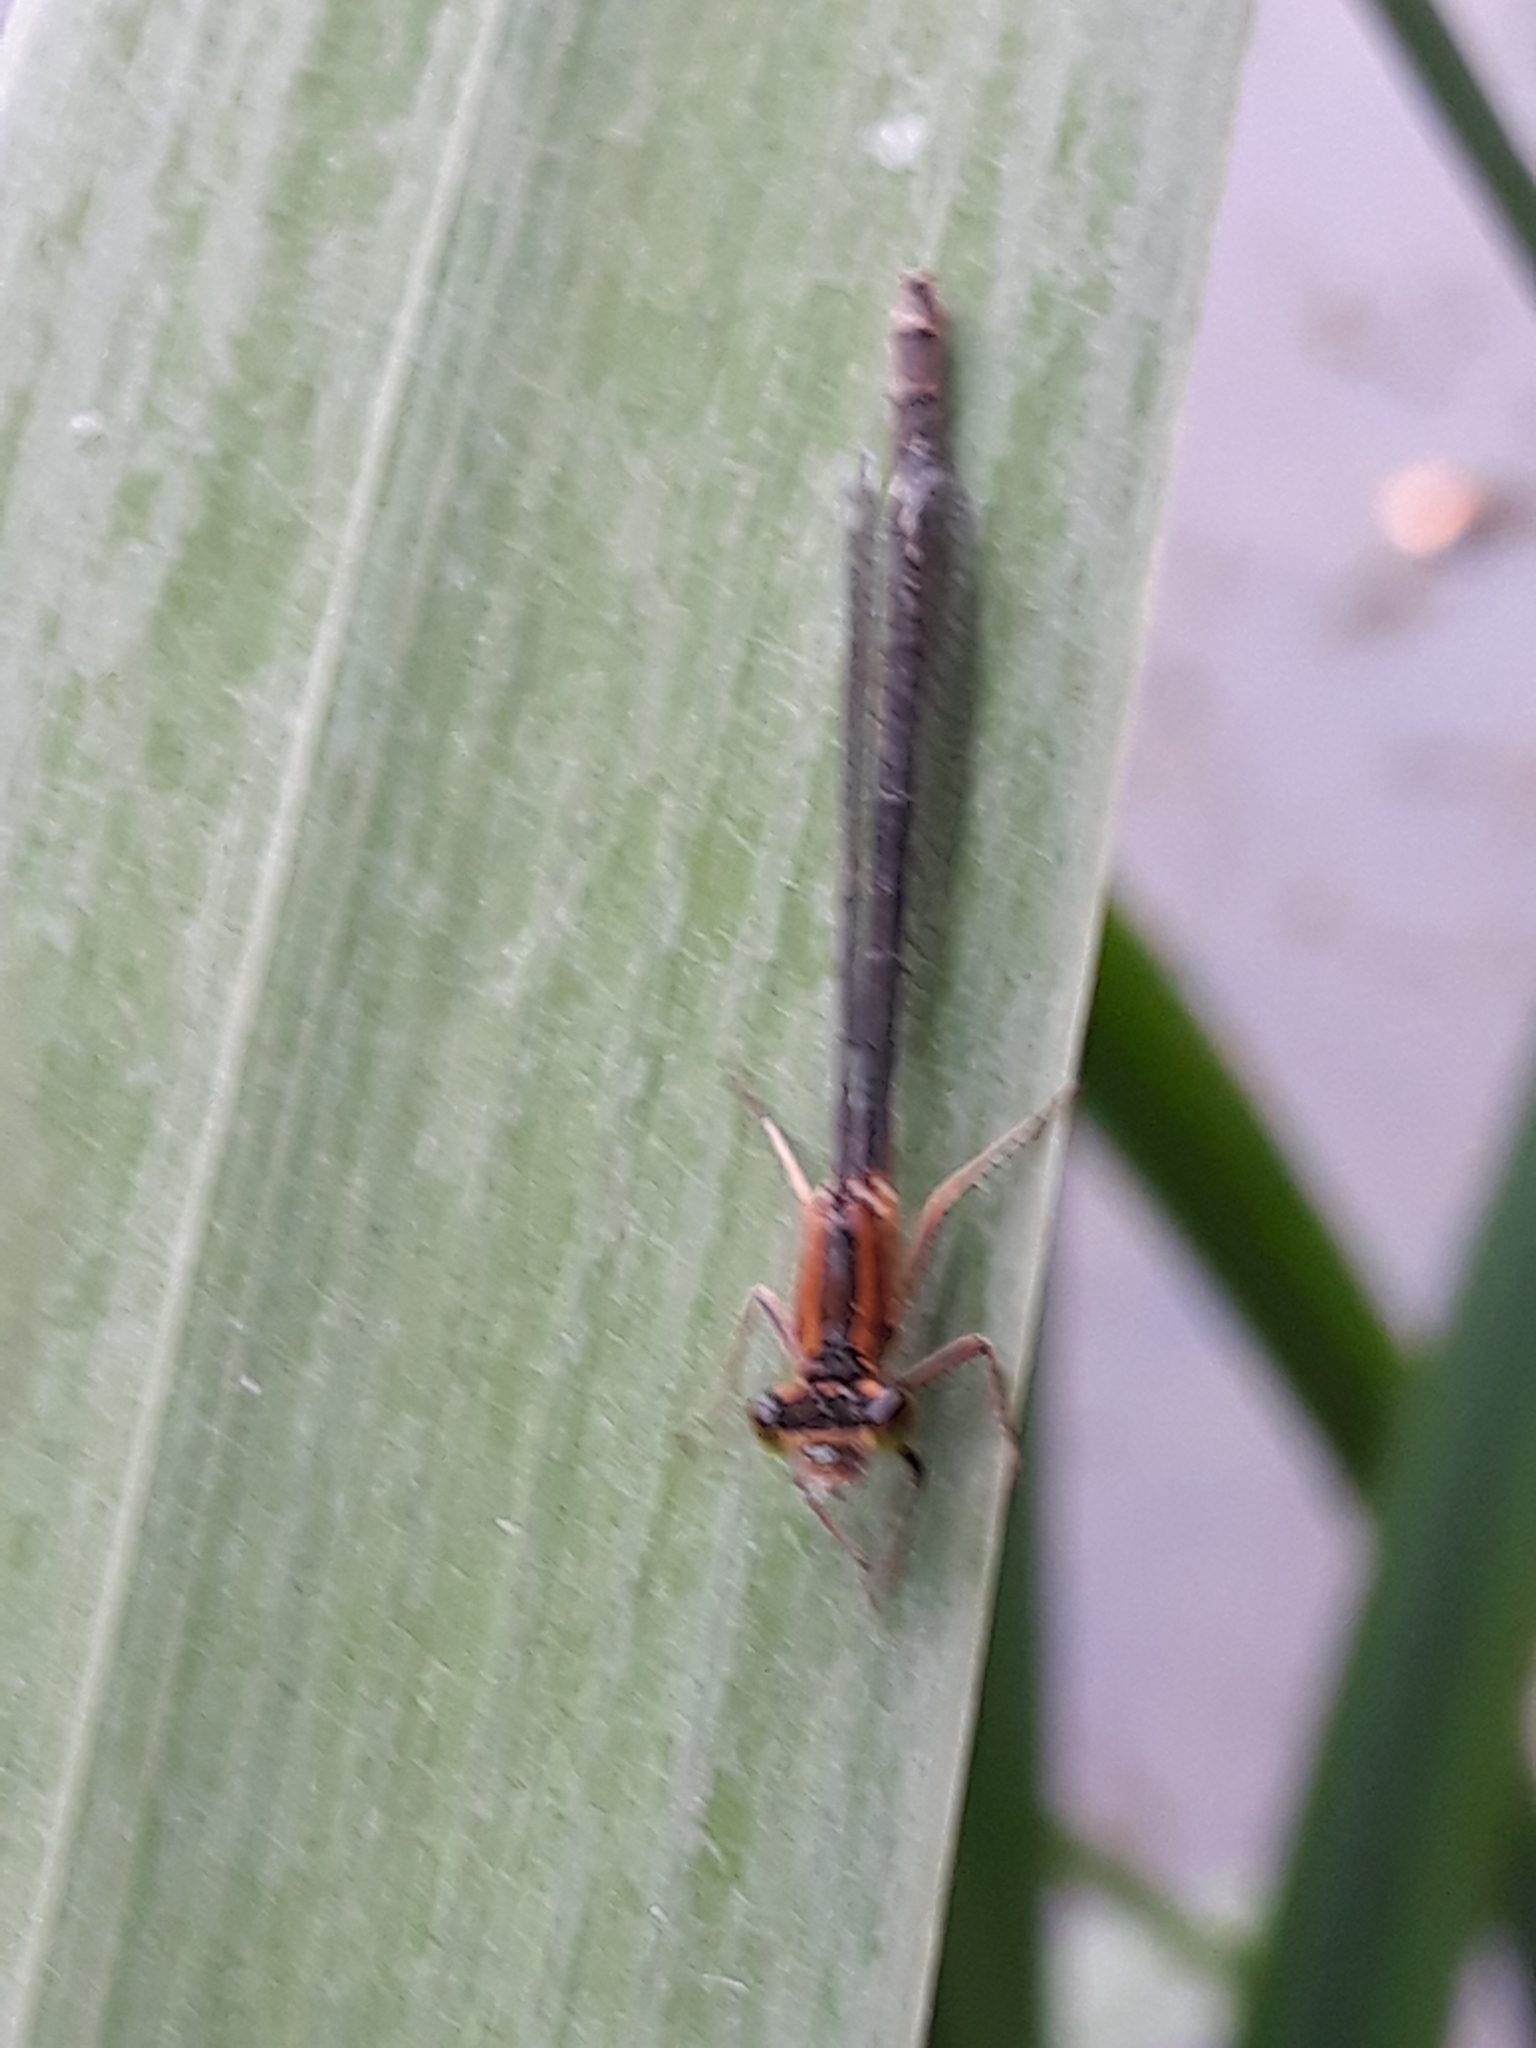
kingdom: Animalia
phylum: Arthropoda
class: Insecta
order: Odonata
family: Coenagrionidae
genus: Ischnura
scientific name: Ischnura elegans
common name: Blue-tailed damselfly
